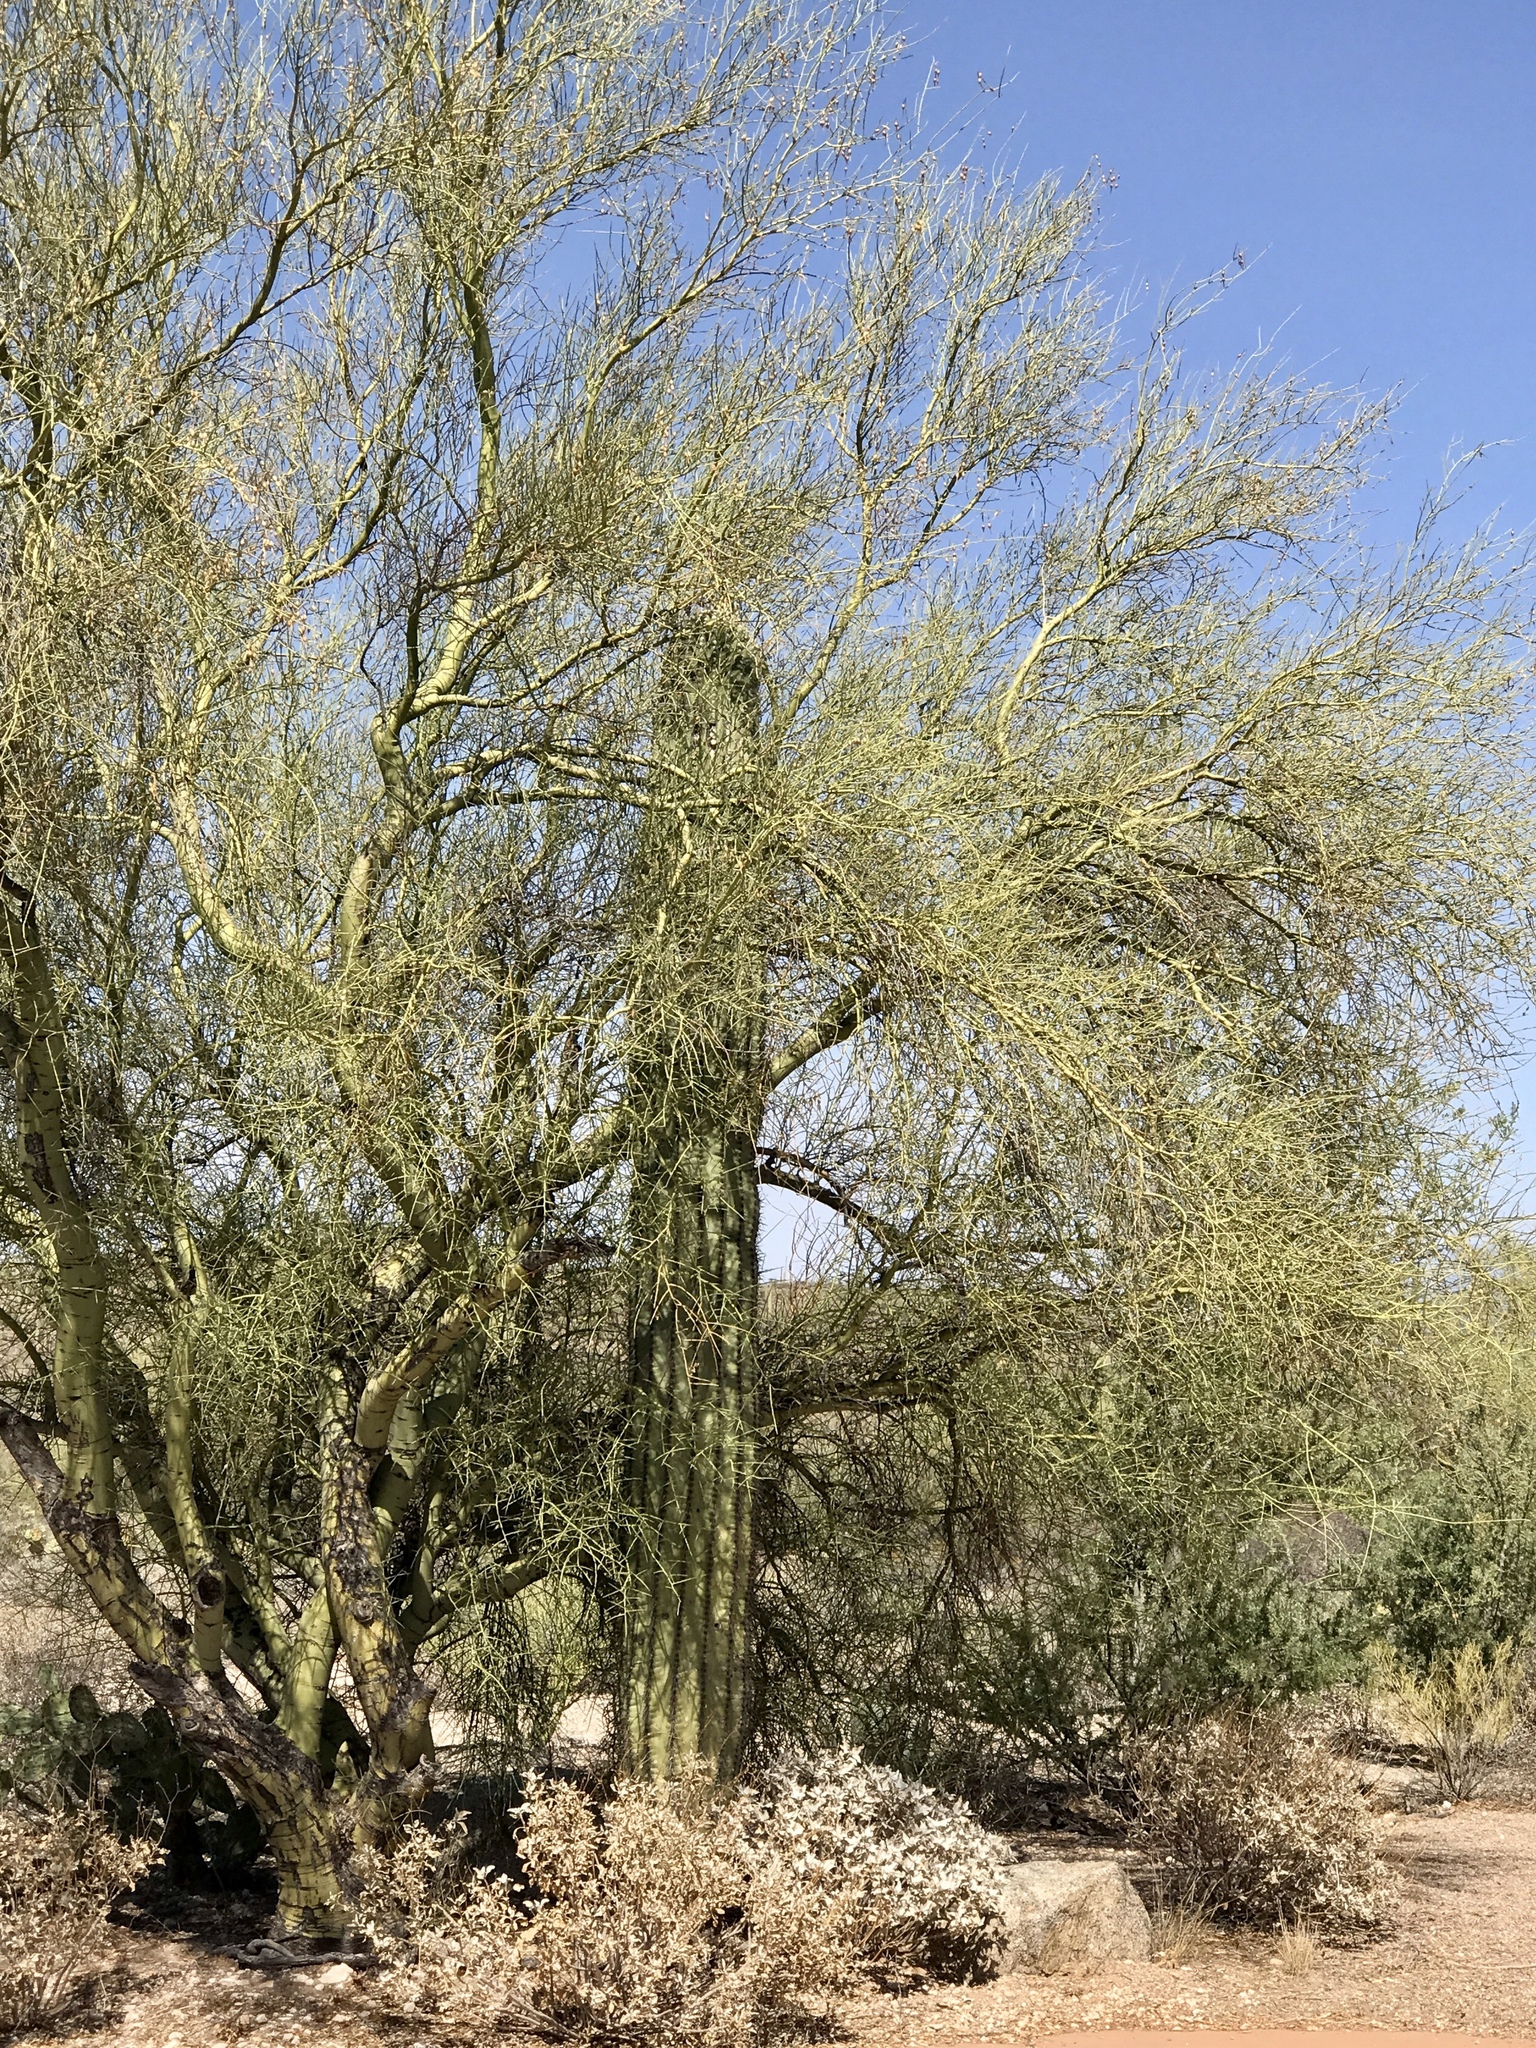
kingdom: Plantae
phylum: Tracheophyta
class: Magnoliopsida
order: Caryophyllales
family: Cactaceae
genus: Carnegiea
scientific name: Carnegiea gigantea
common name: Saguaro
